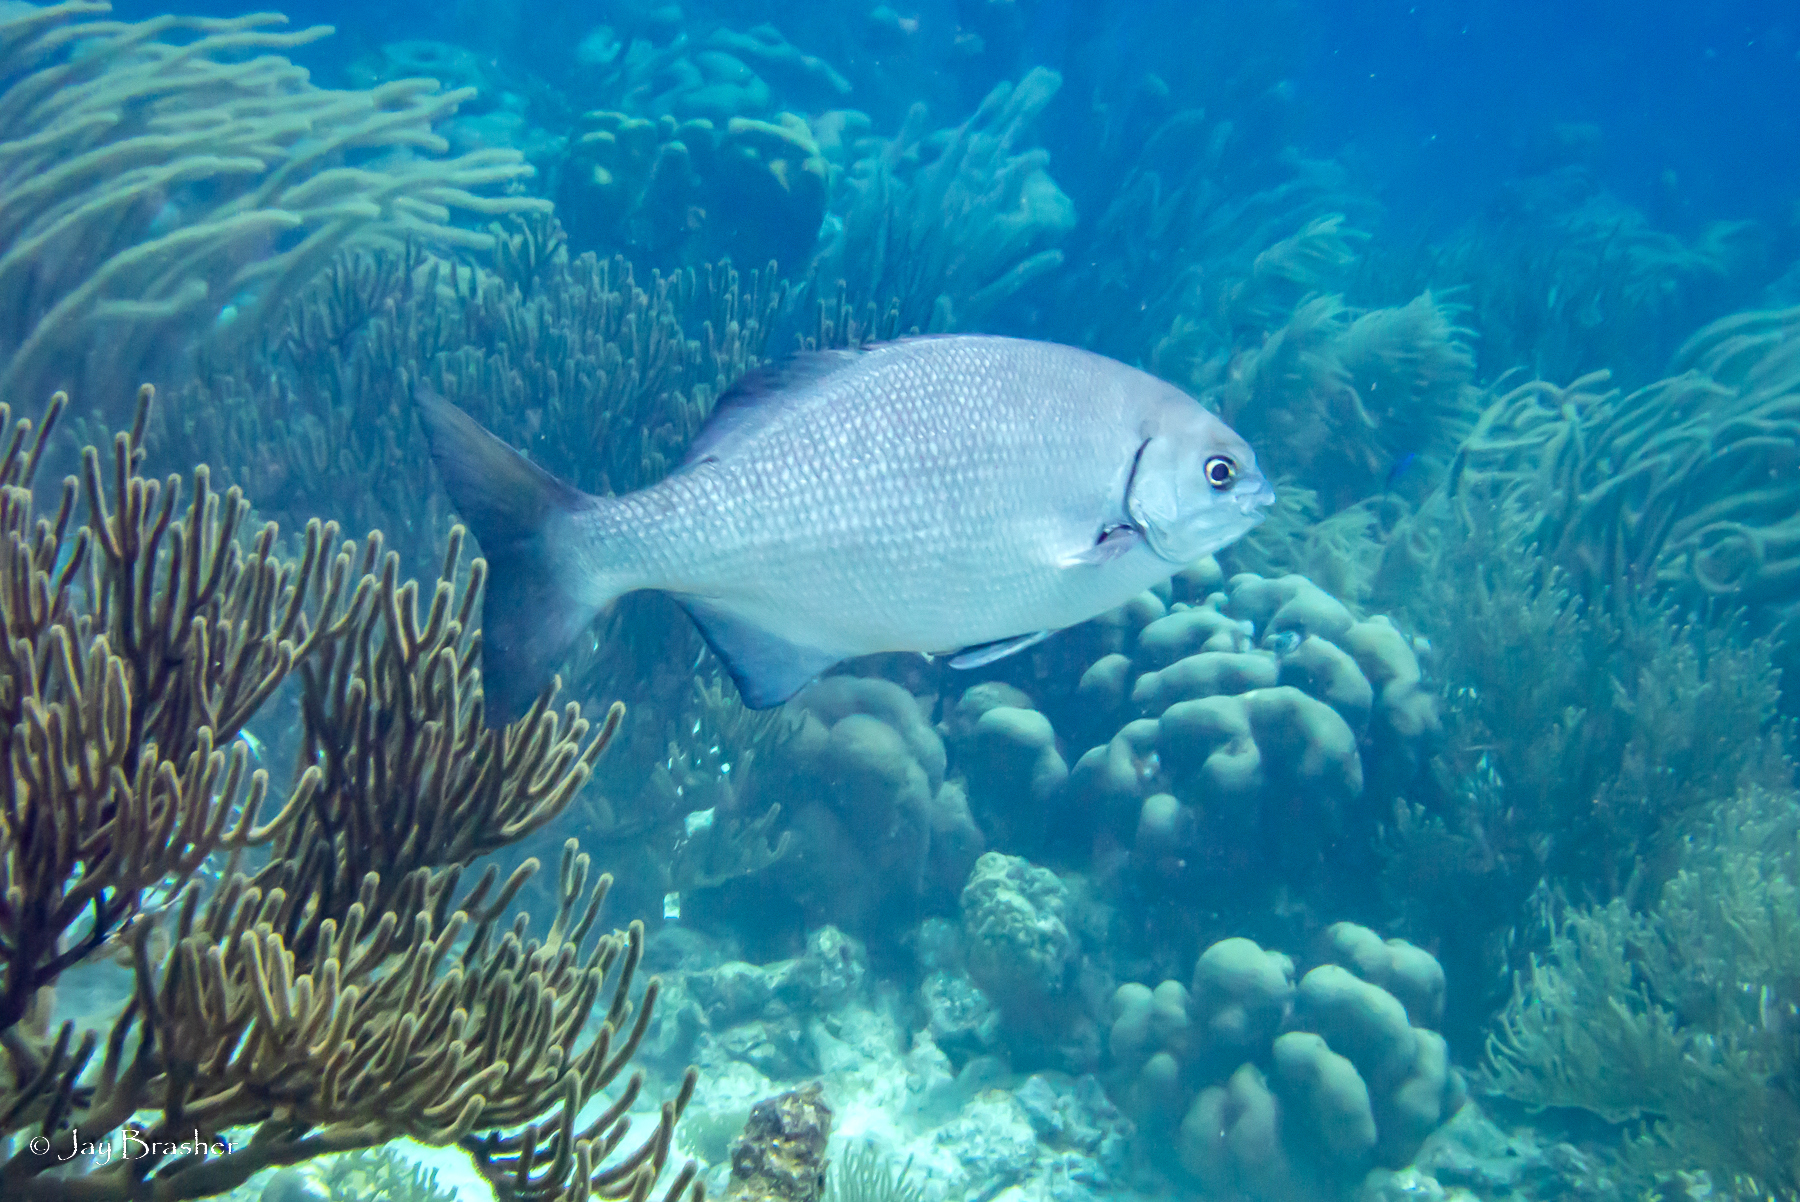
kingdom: Animalia
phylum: Chordata
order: Perciformes
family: Kyphosidae
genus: Kyphosus
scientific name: Kyphosus bigibbus
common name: Brown chub
